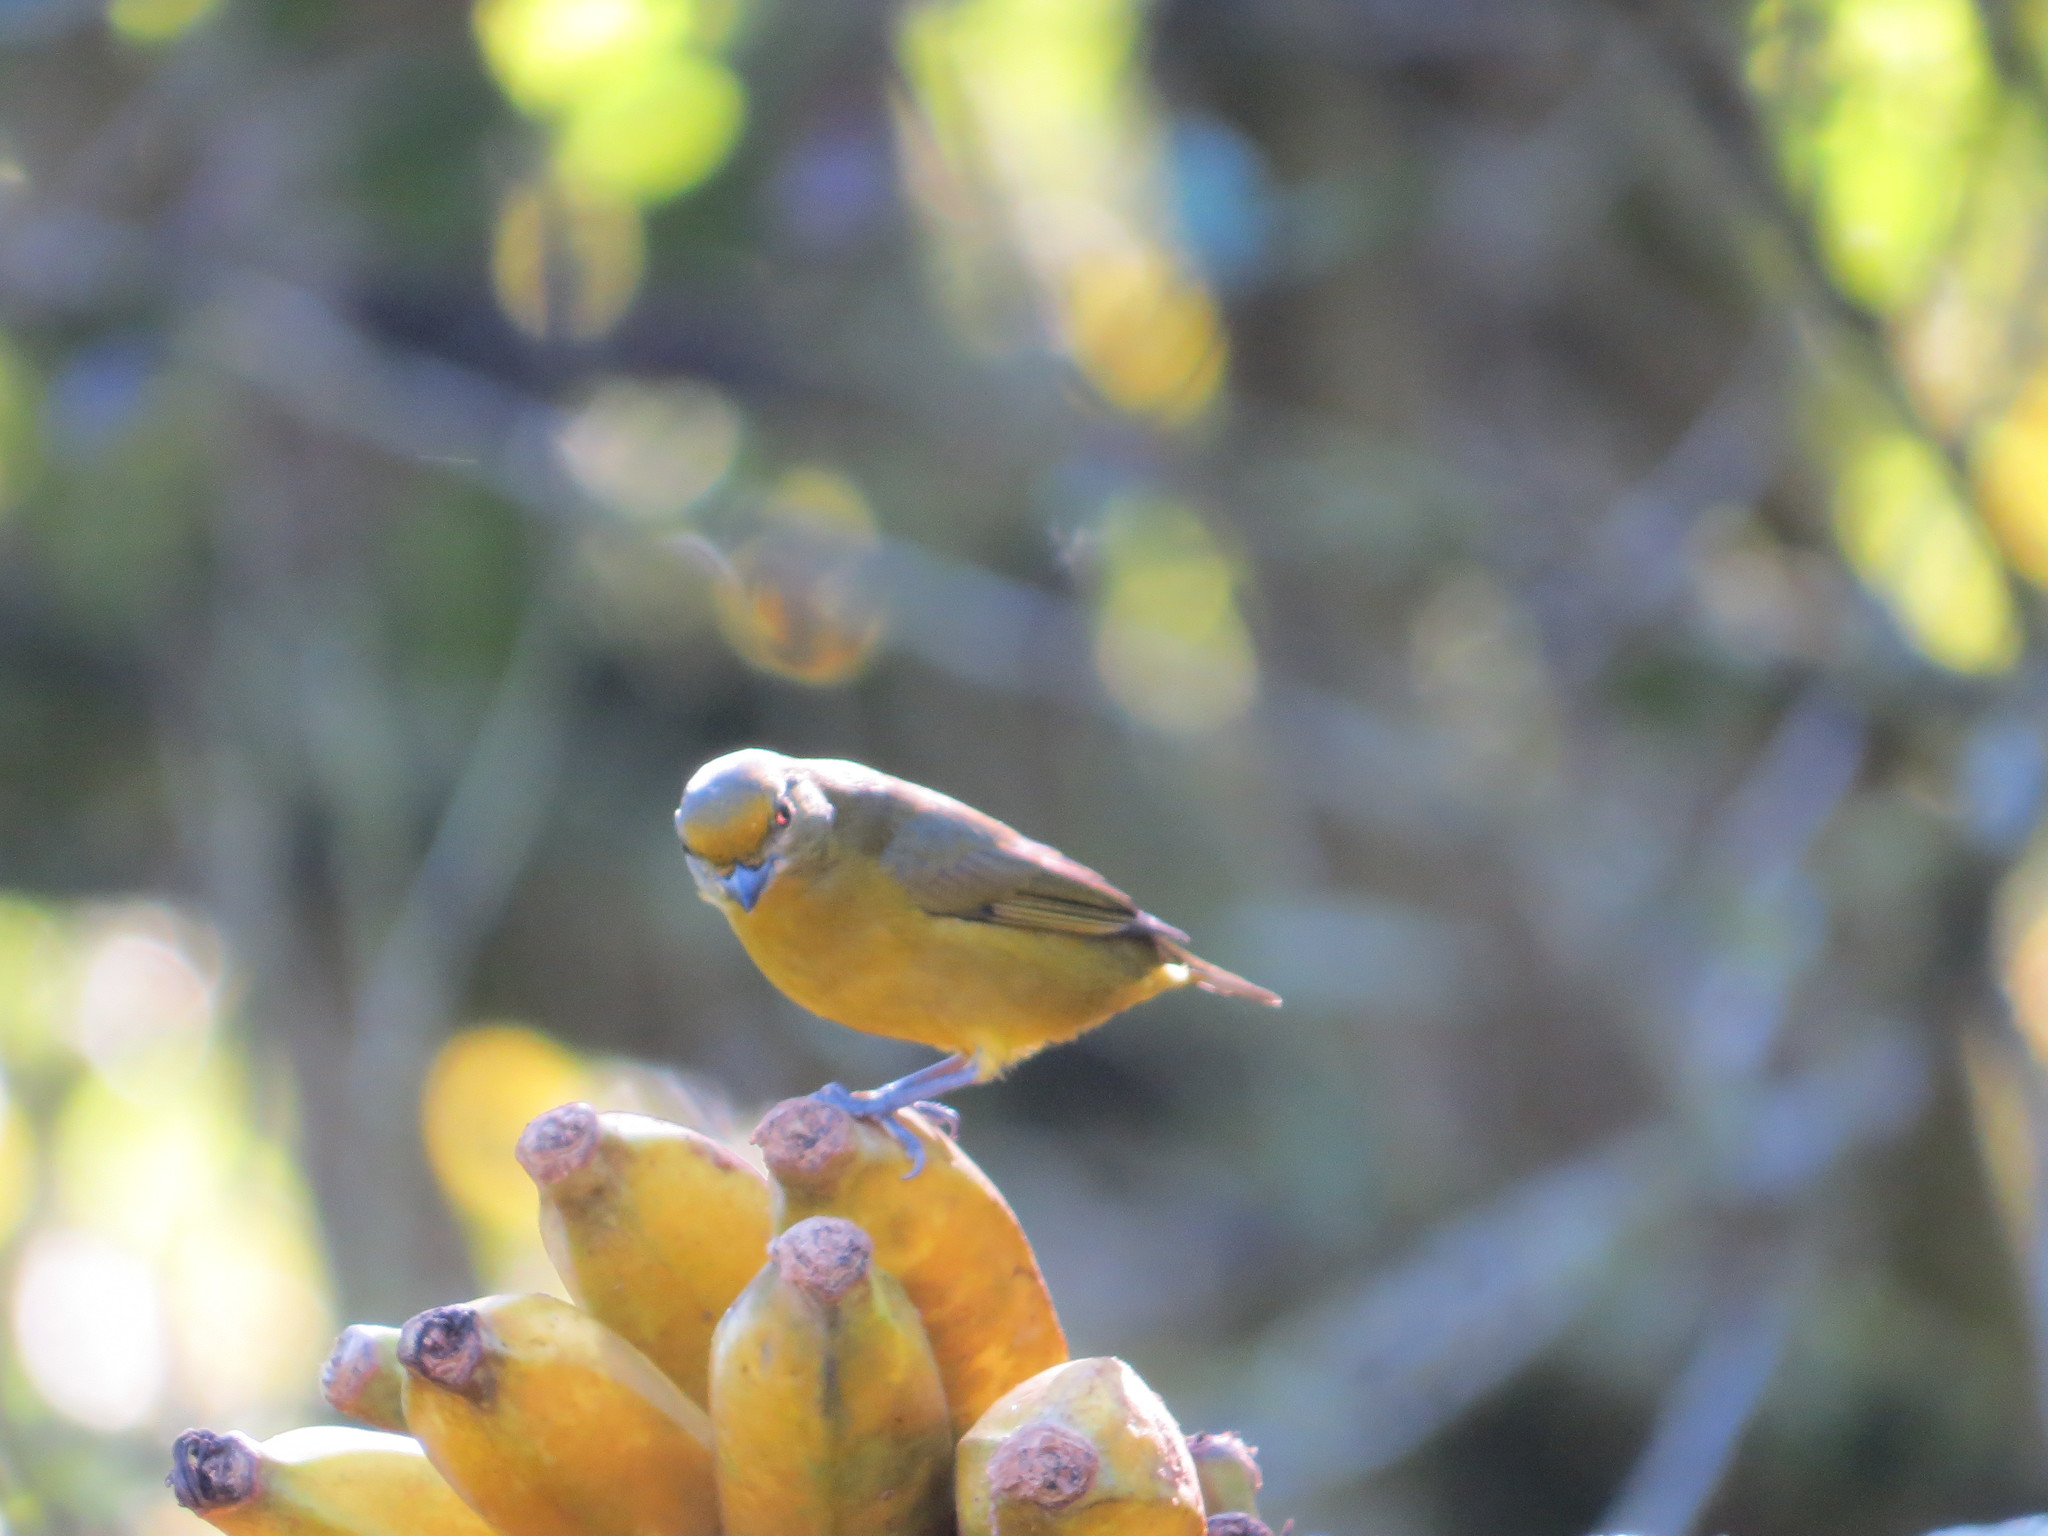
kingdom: Animalia
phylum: Chordata
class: Aves
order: Passeriformes
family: Fringillidae
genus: Euphonia
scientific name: Euphonia violacea
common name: Violaceous euphonia
